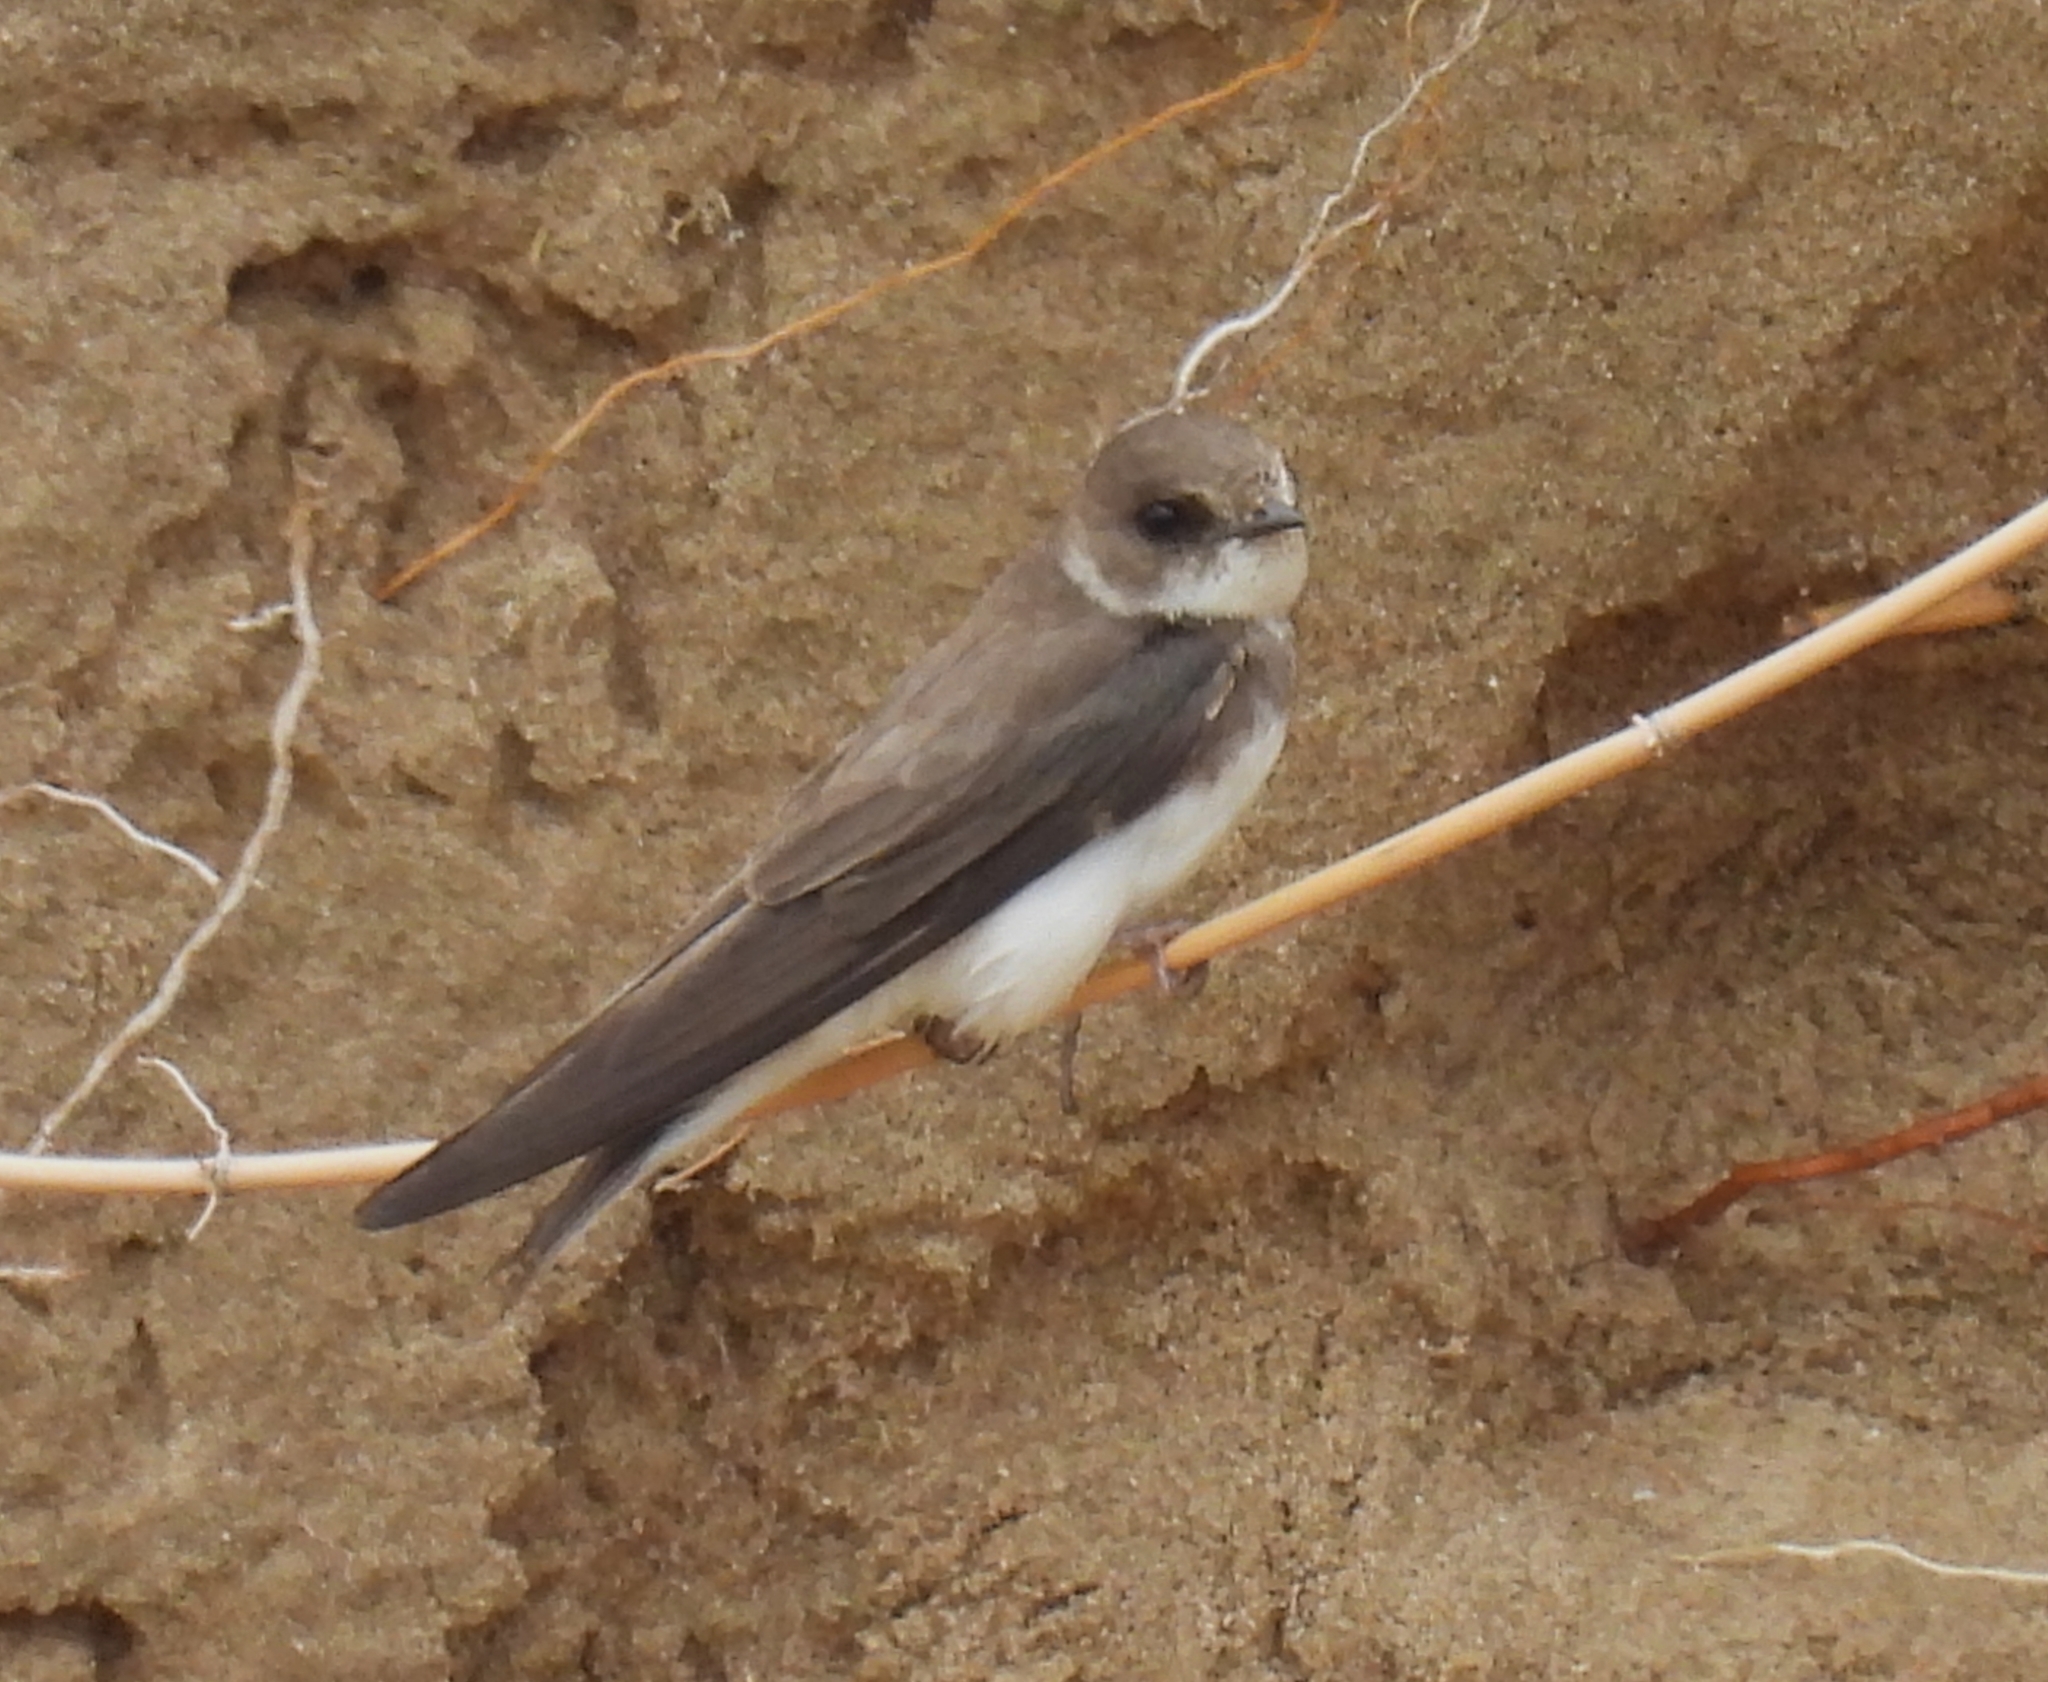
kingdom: Animalia
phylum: Chordata
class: Aves
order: Passeriformes
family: Hirundinidae
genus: Riparia
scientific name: Riparia riparia
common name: Sand martin
